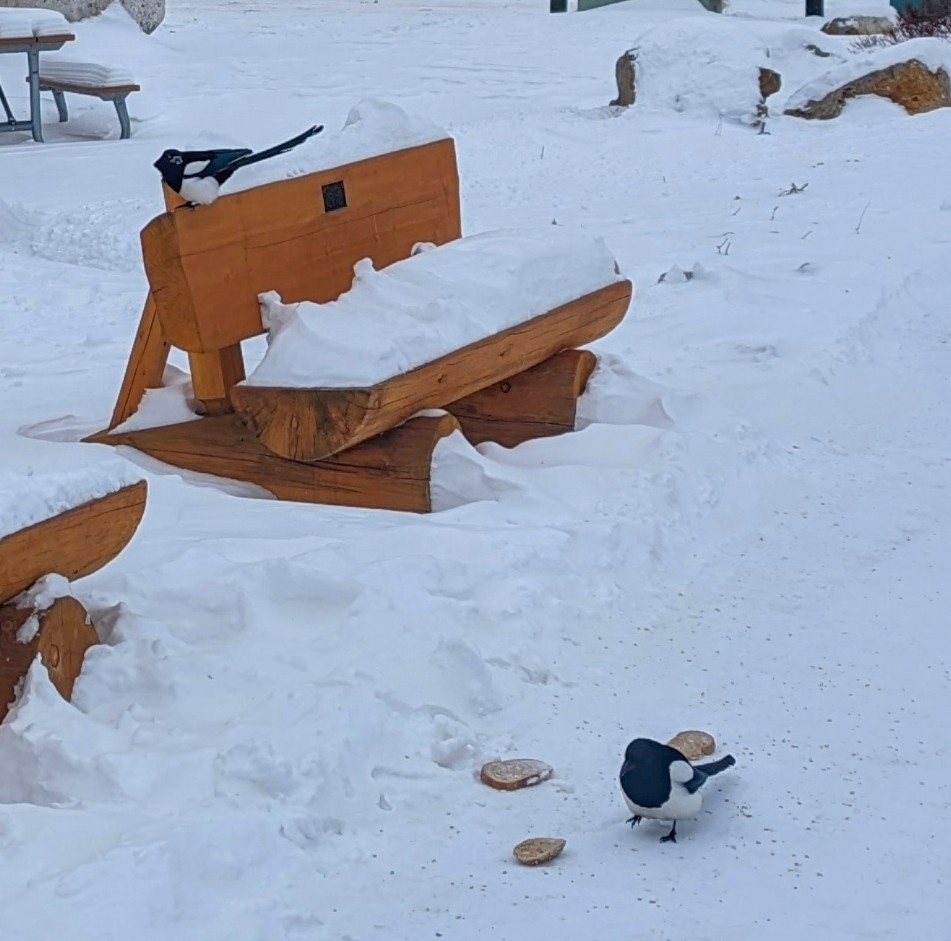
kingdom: Animalia
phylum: Chordata
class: Aves
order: Passeriformes
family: Corvidae
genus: Pica
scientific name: Pica hudsonia
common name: Black-billed magpie
